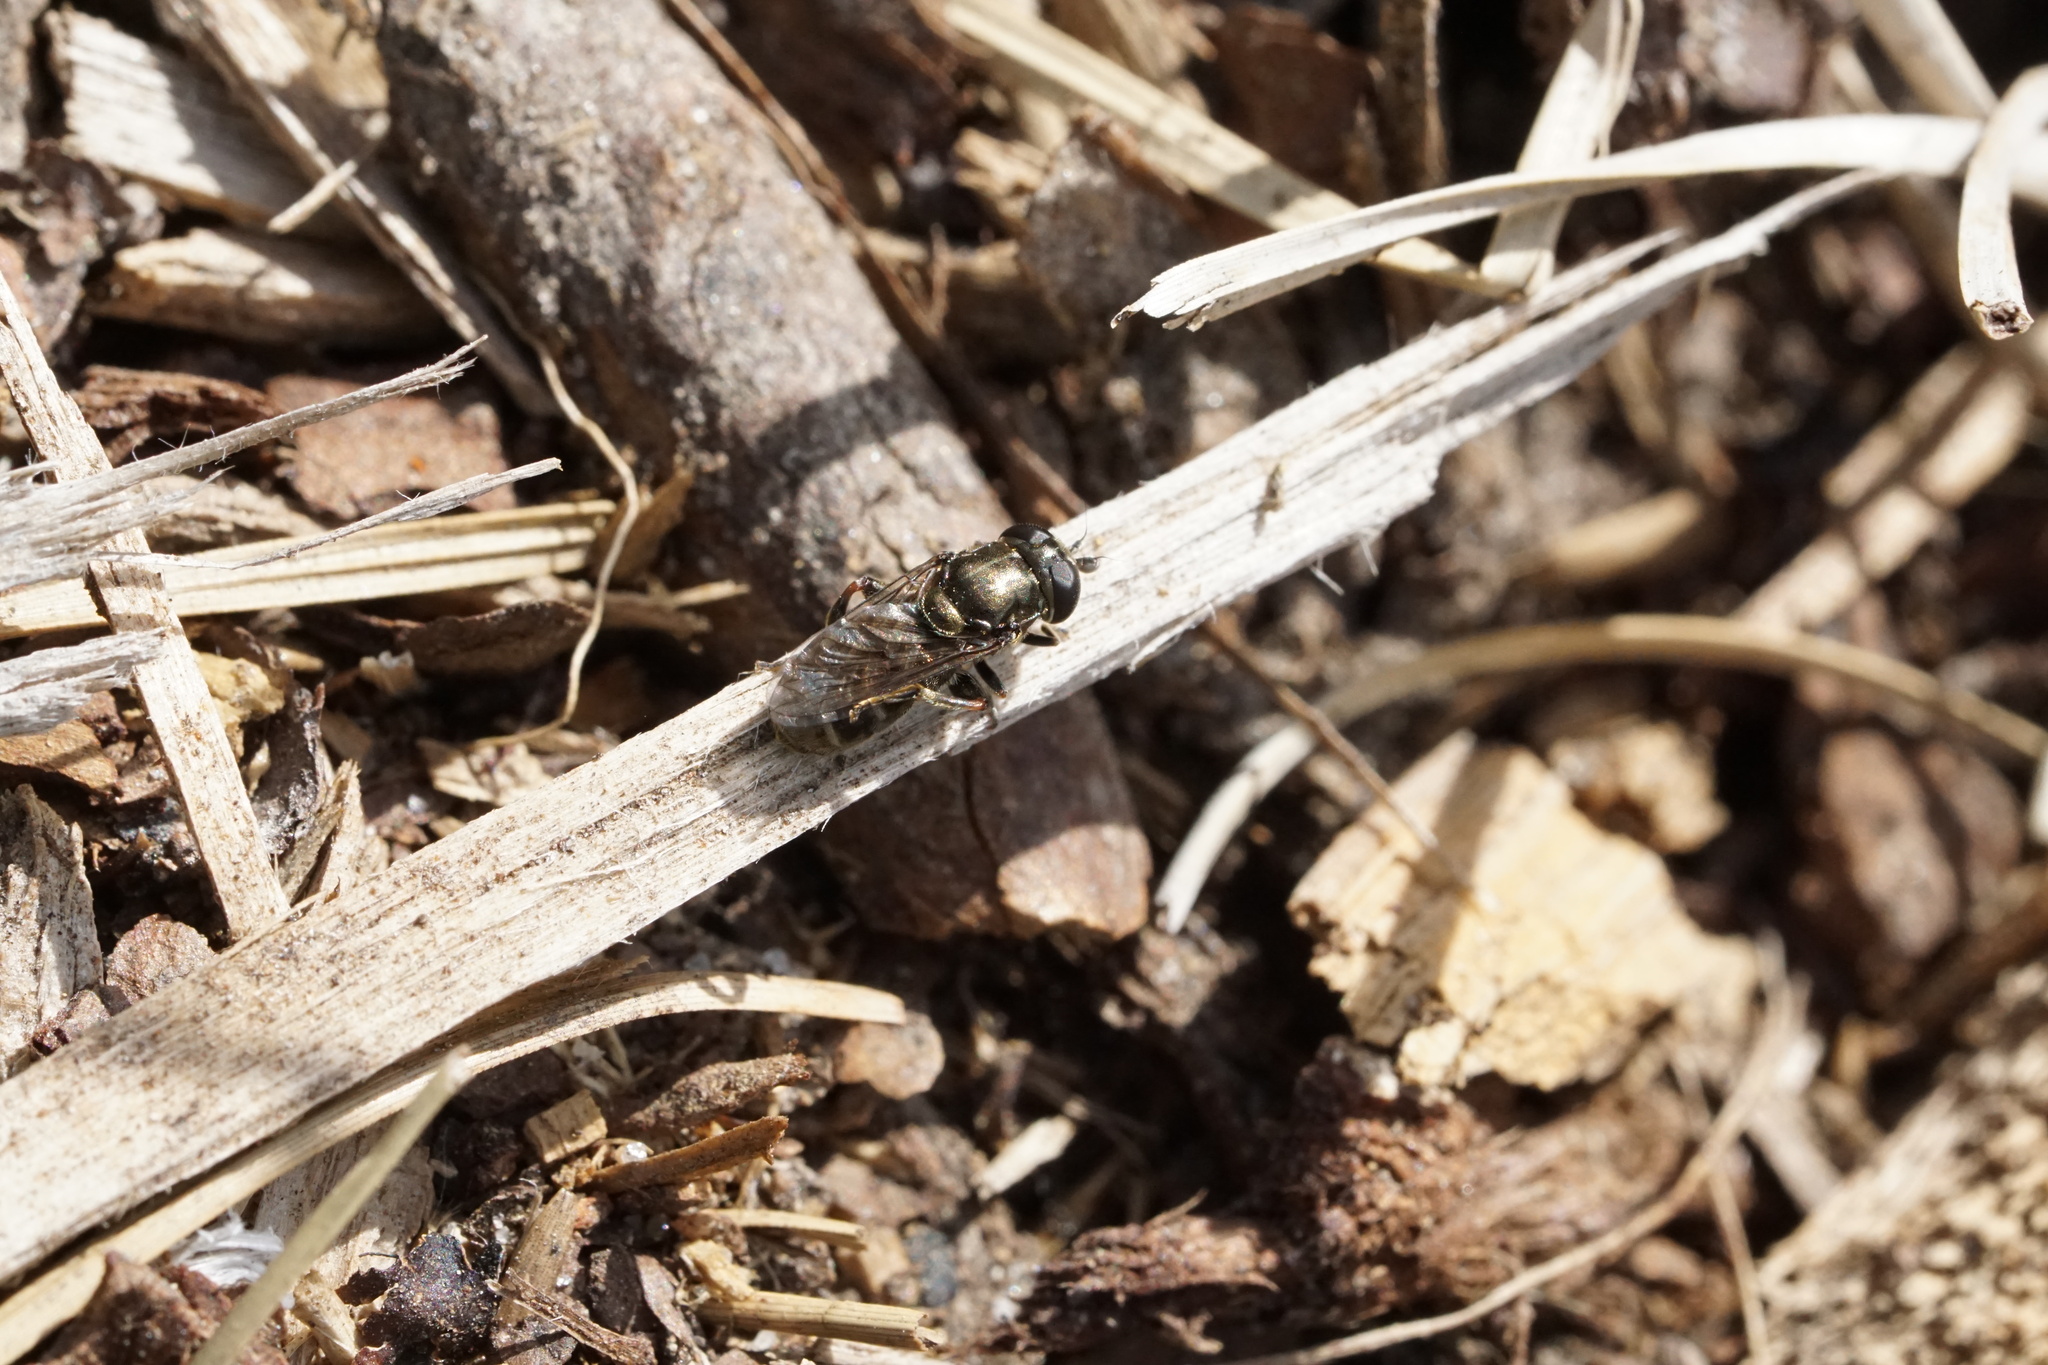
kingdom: Animalia
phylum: Arthropoda
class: Insecta
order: Diptera
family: Syrphidae
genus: Eumerus
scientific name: Eumerus
